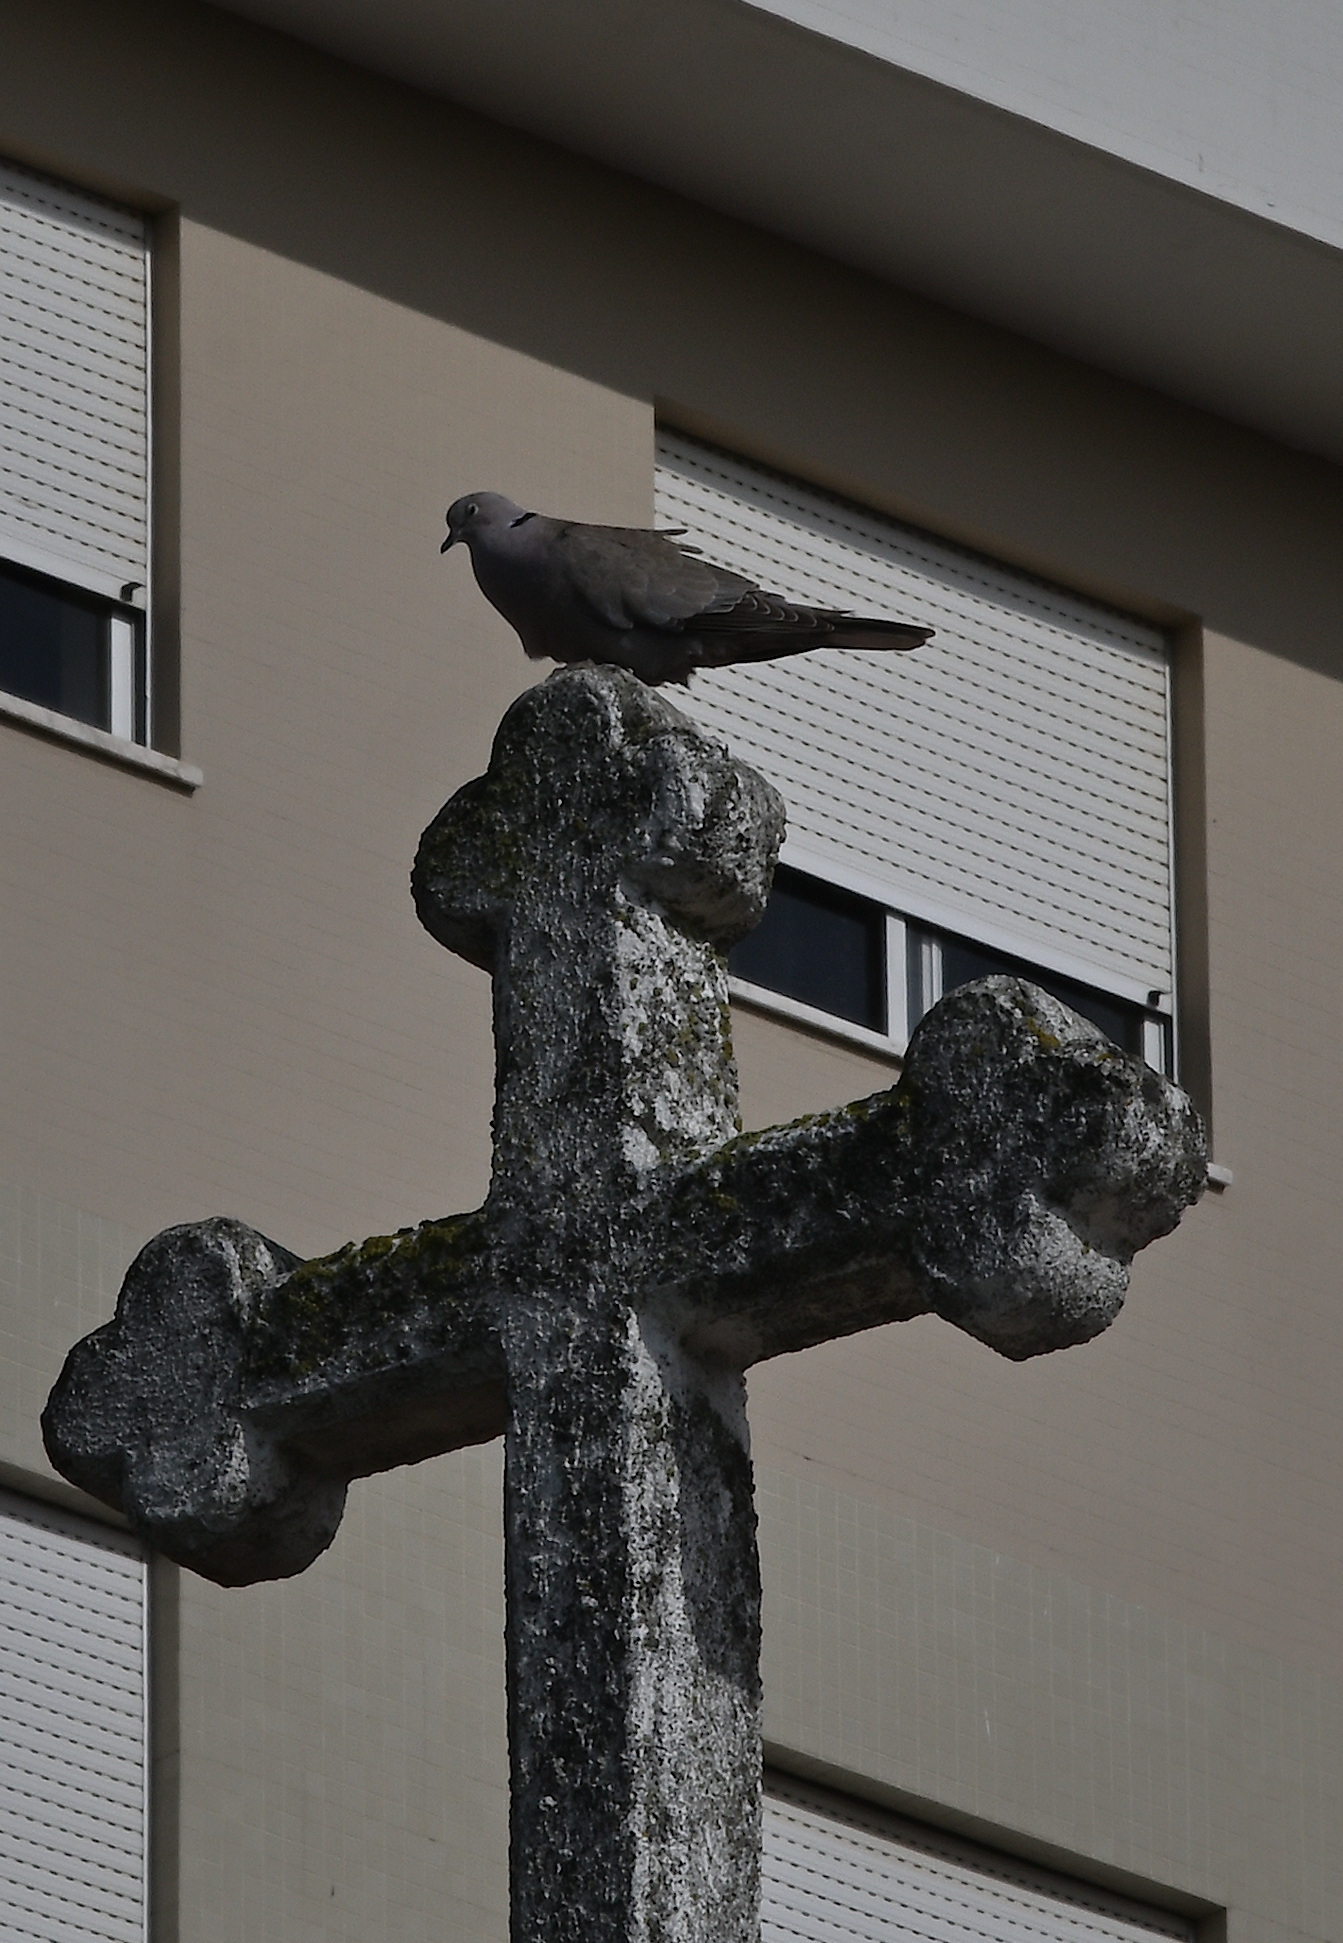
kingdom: Animalia
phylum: Chordata
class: Aves
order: Columbiformes
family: Columbidae
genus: Streptopelia
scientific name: Streptopelia decaocto
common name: Eurasian collared dove
